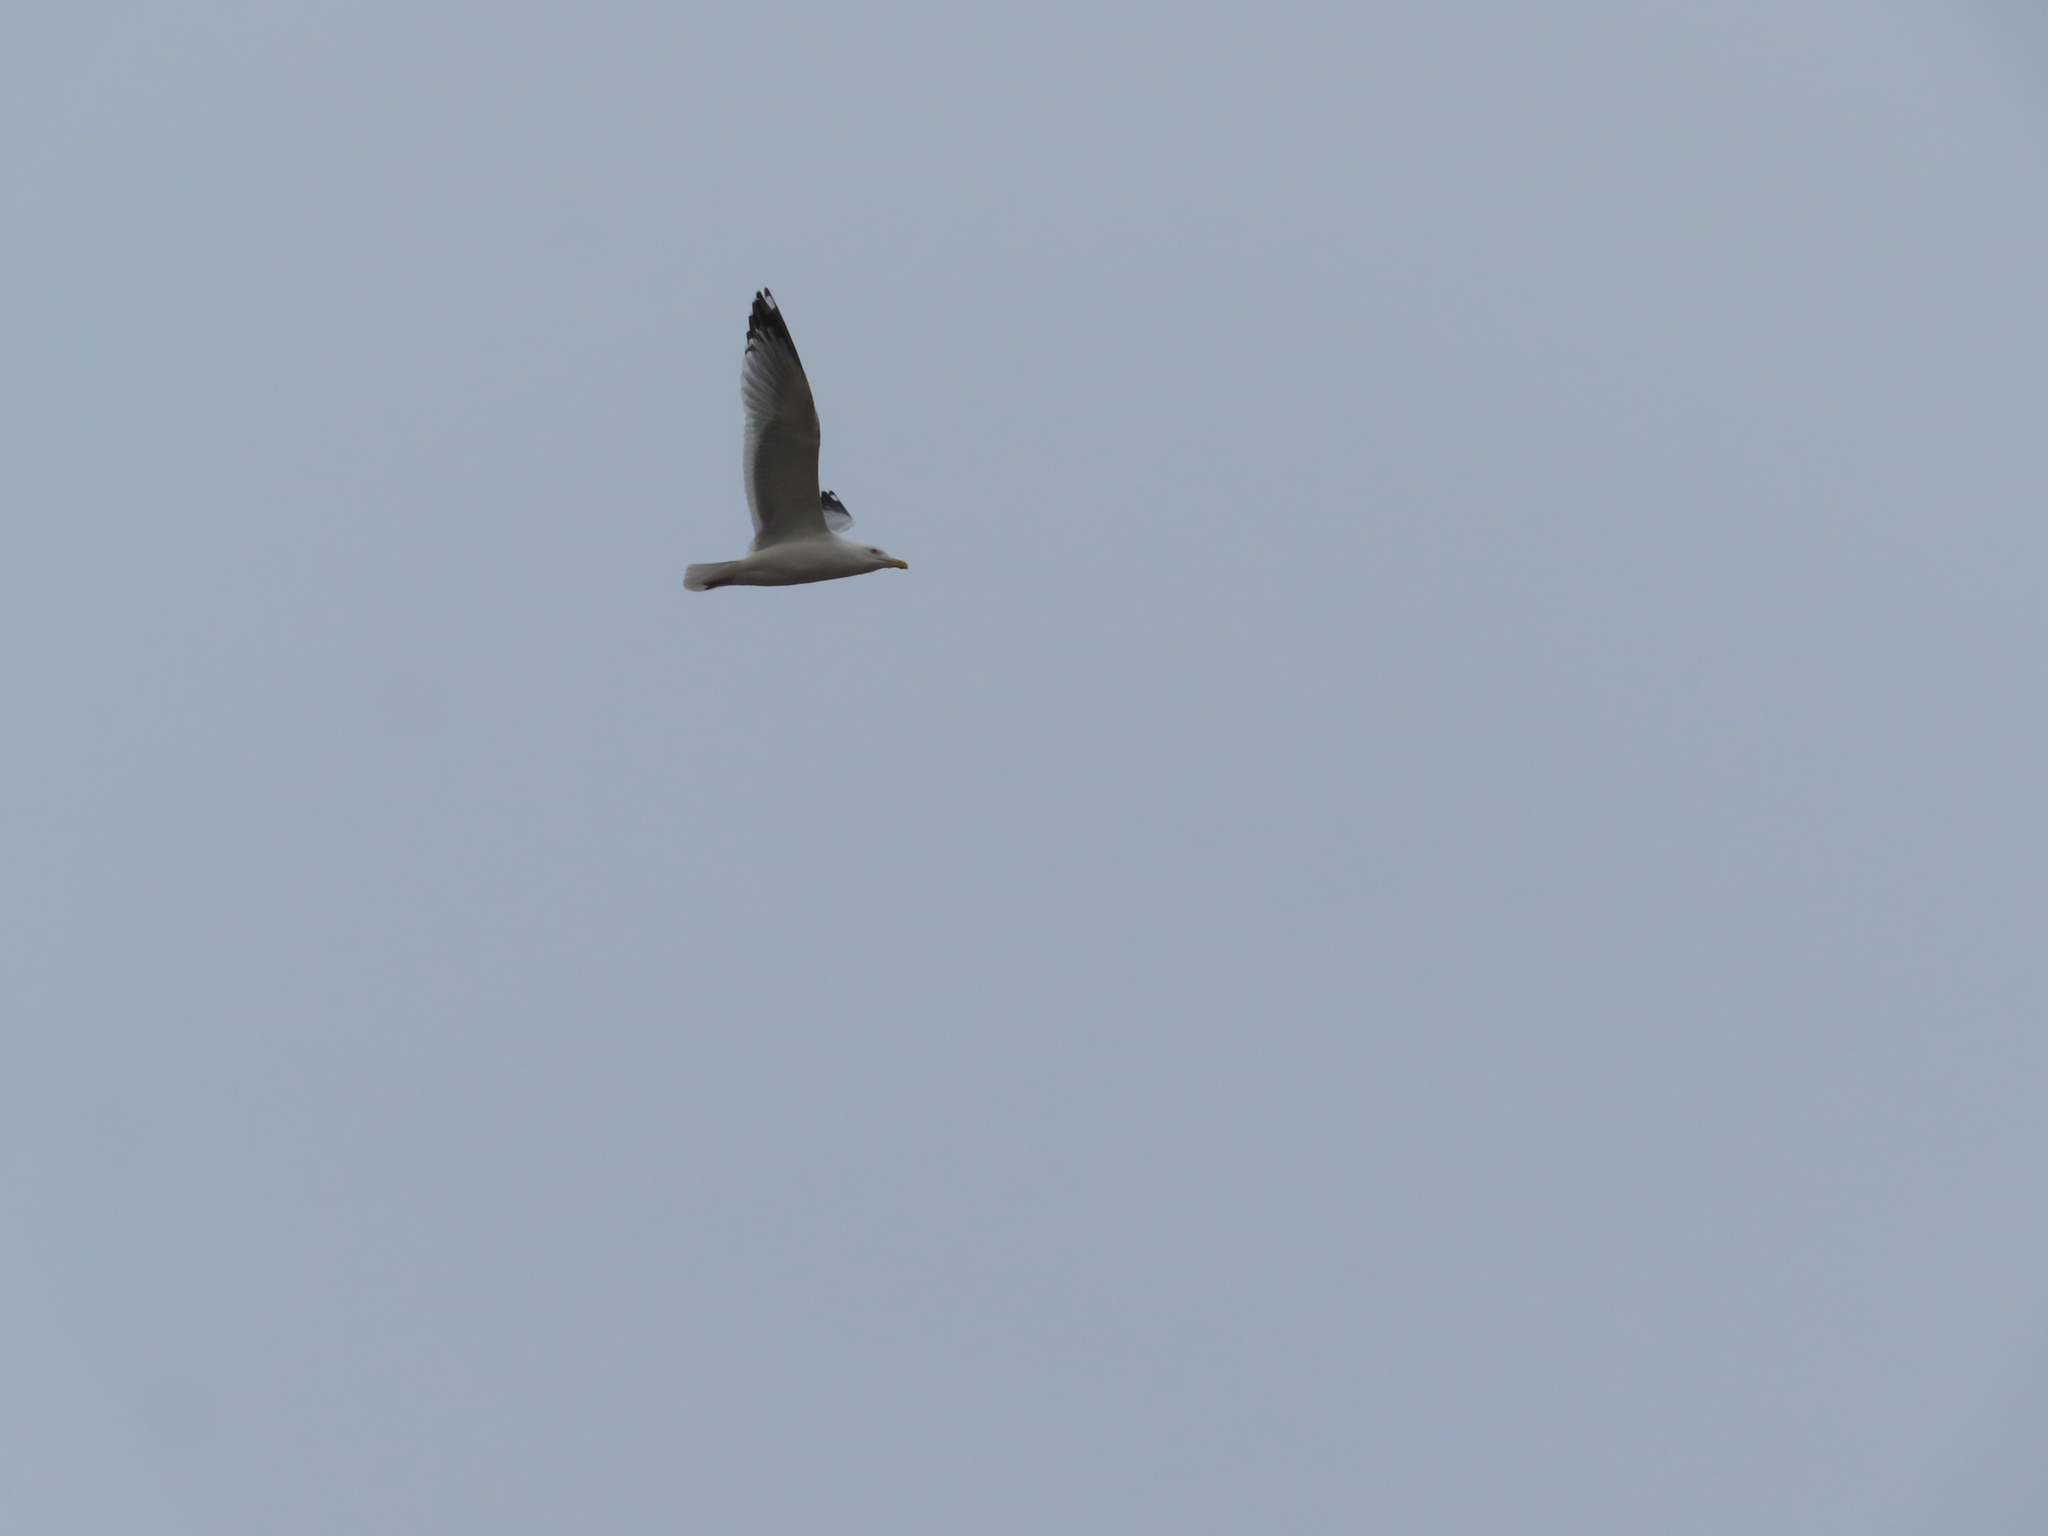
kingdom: Animalia
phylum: Chordata
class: Aves
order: Charadriiformes
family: Laridae
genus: Larus
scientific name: Larus argentatus
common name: Herring gull
